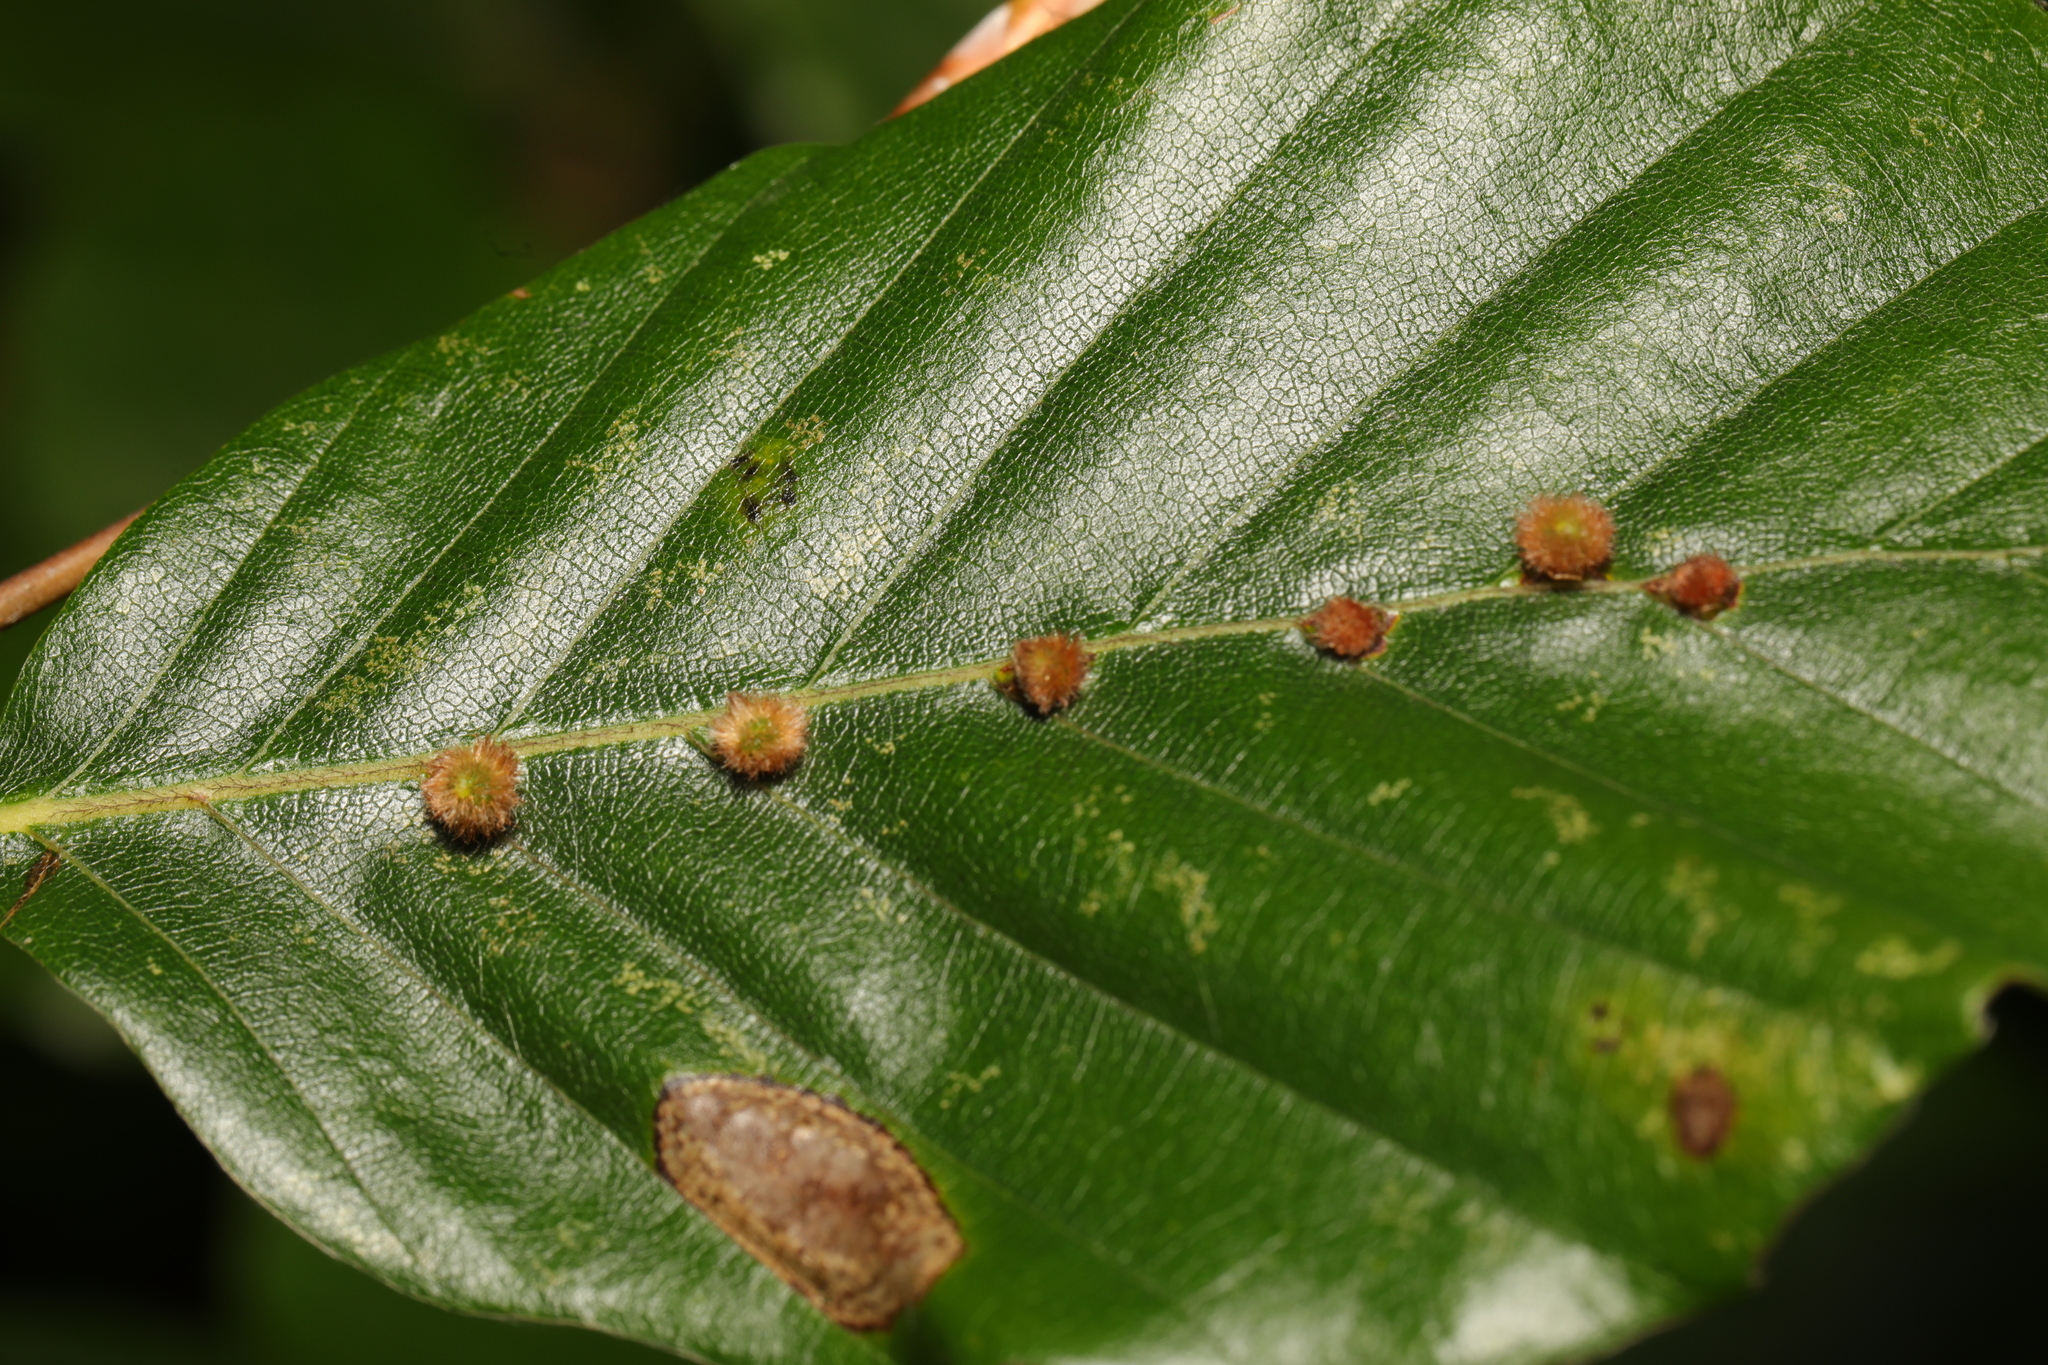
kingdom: Animalia
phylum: Arthropoda
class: Insecta
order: Diptera
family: Cecidomyiidae
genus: Hartigiola
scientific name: Hartigiola annulipes
